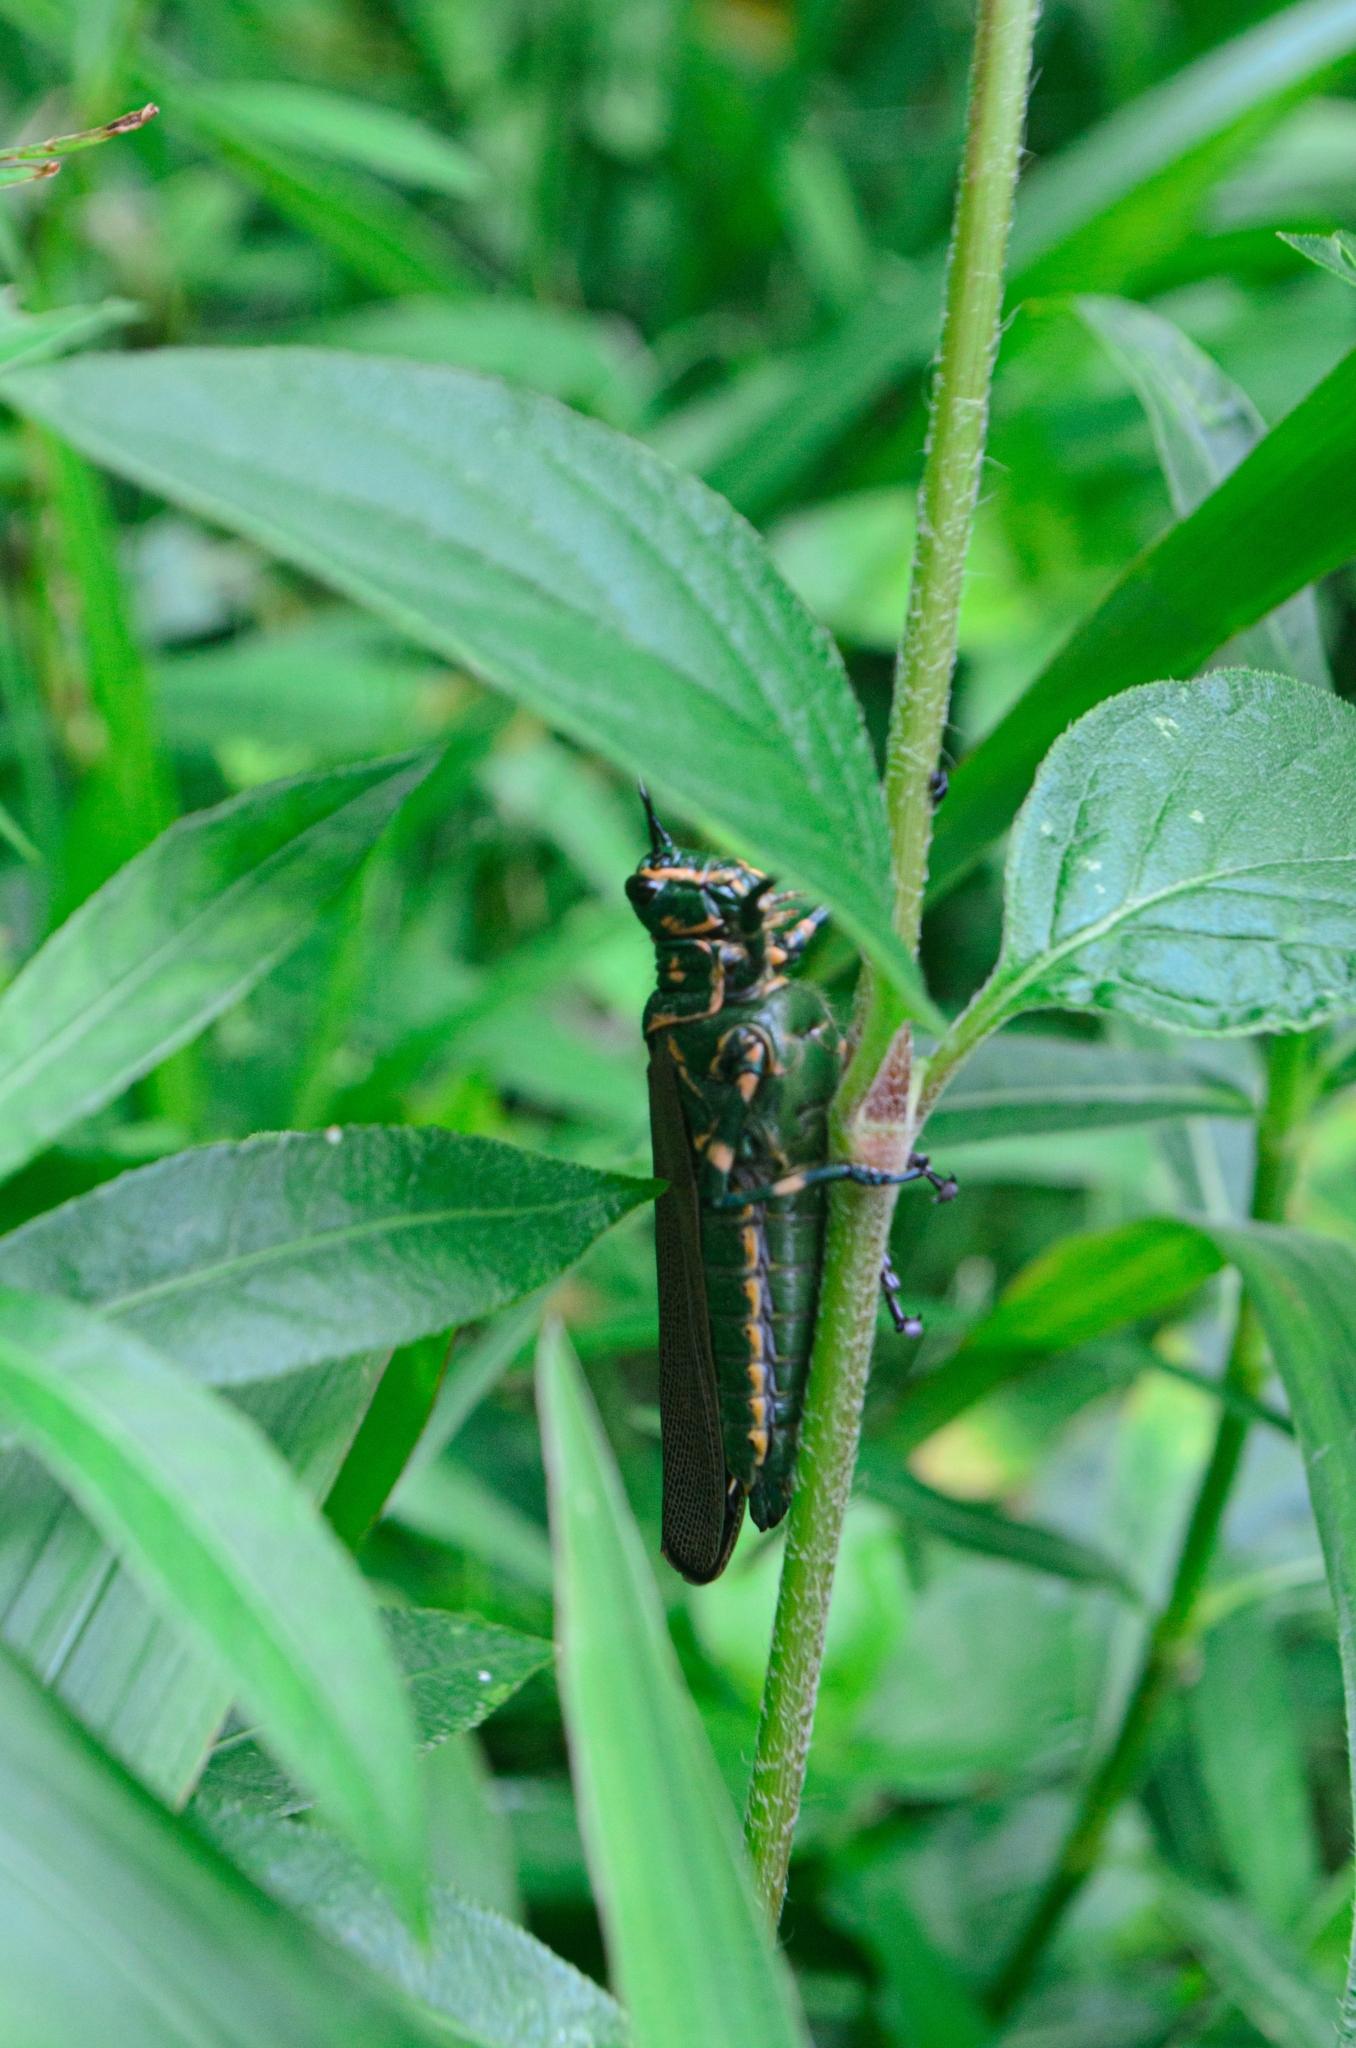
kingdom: Animalia
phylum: Arthropoda
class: Insecta
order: Orthoptera
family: Romaleidae
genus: Chromacris
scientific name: Chromacris speciosa
